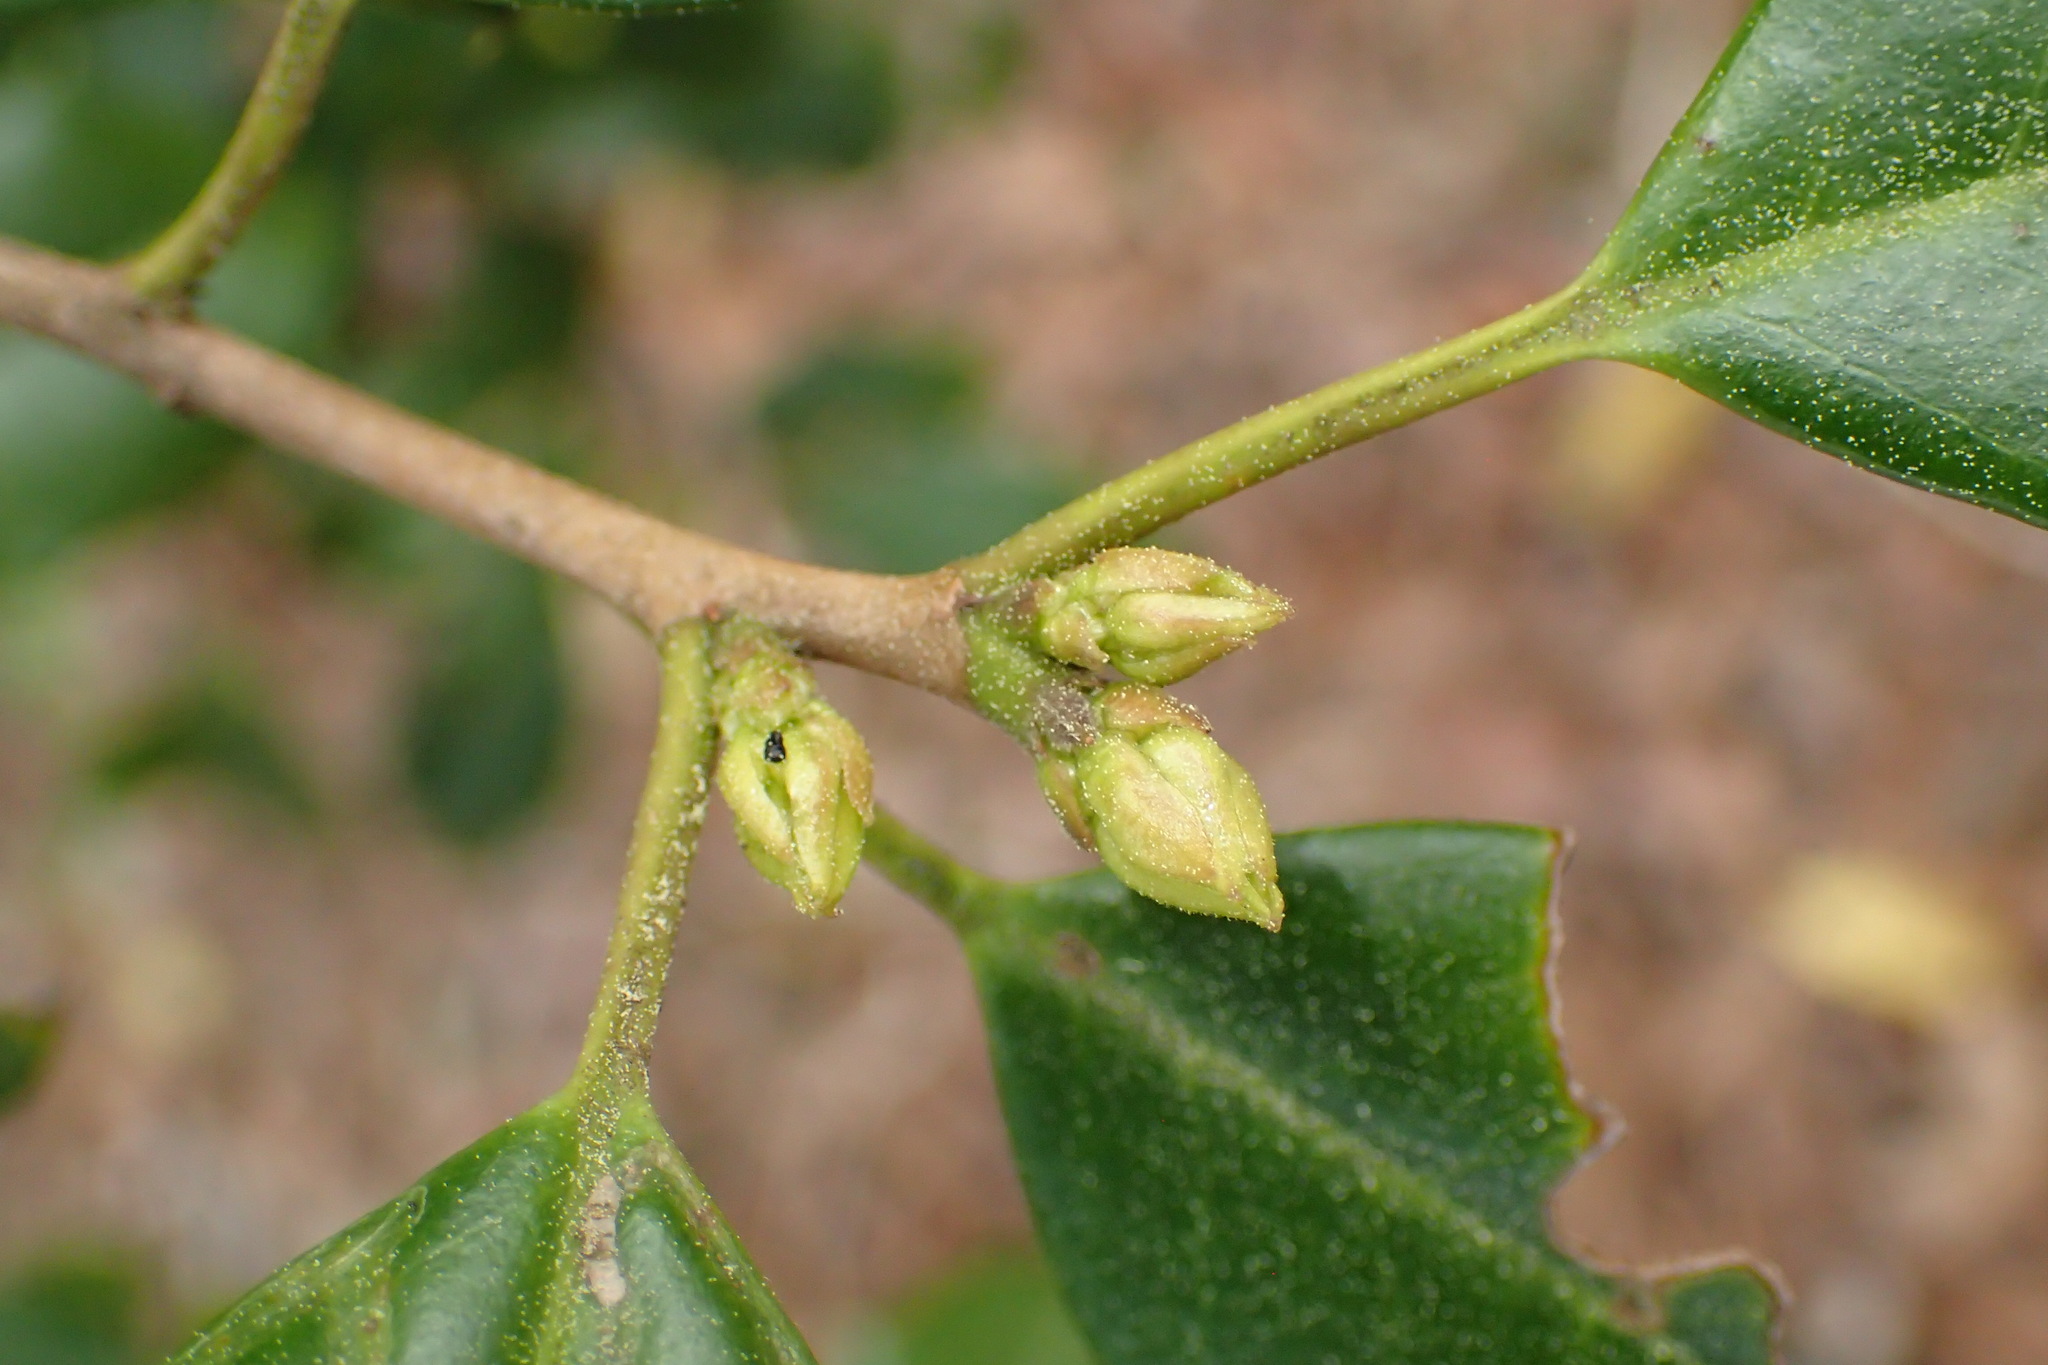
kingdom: Plantae
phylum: Tracheophyta
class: Magnoliopsida
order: Aquifoliales
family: Aquifoliaceae
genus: Ilex
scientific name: Ilex opaca
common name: American holly
